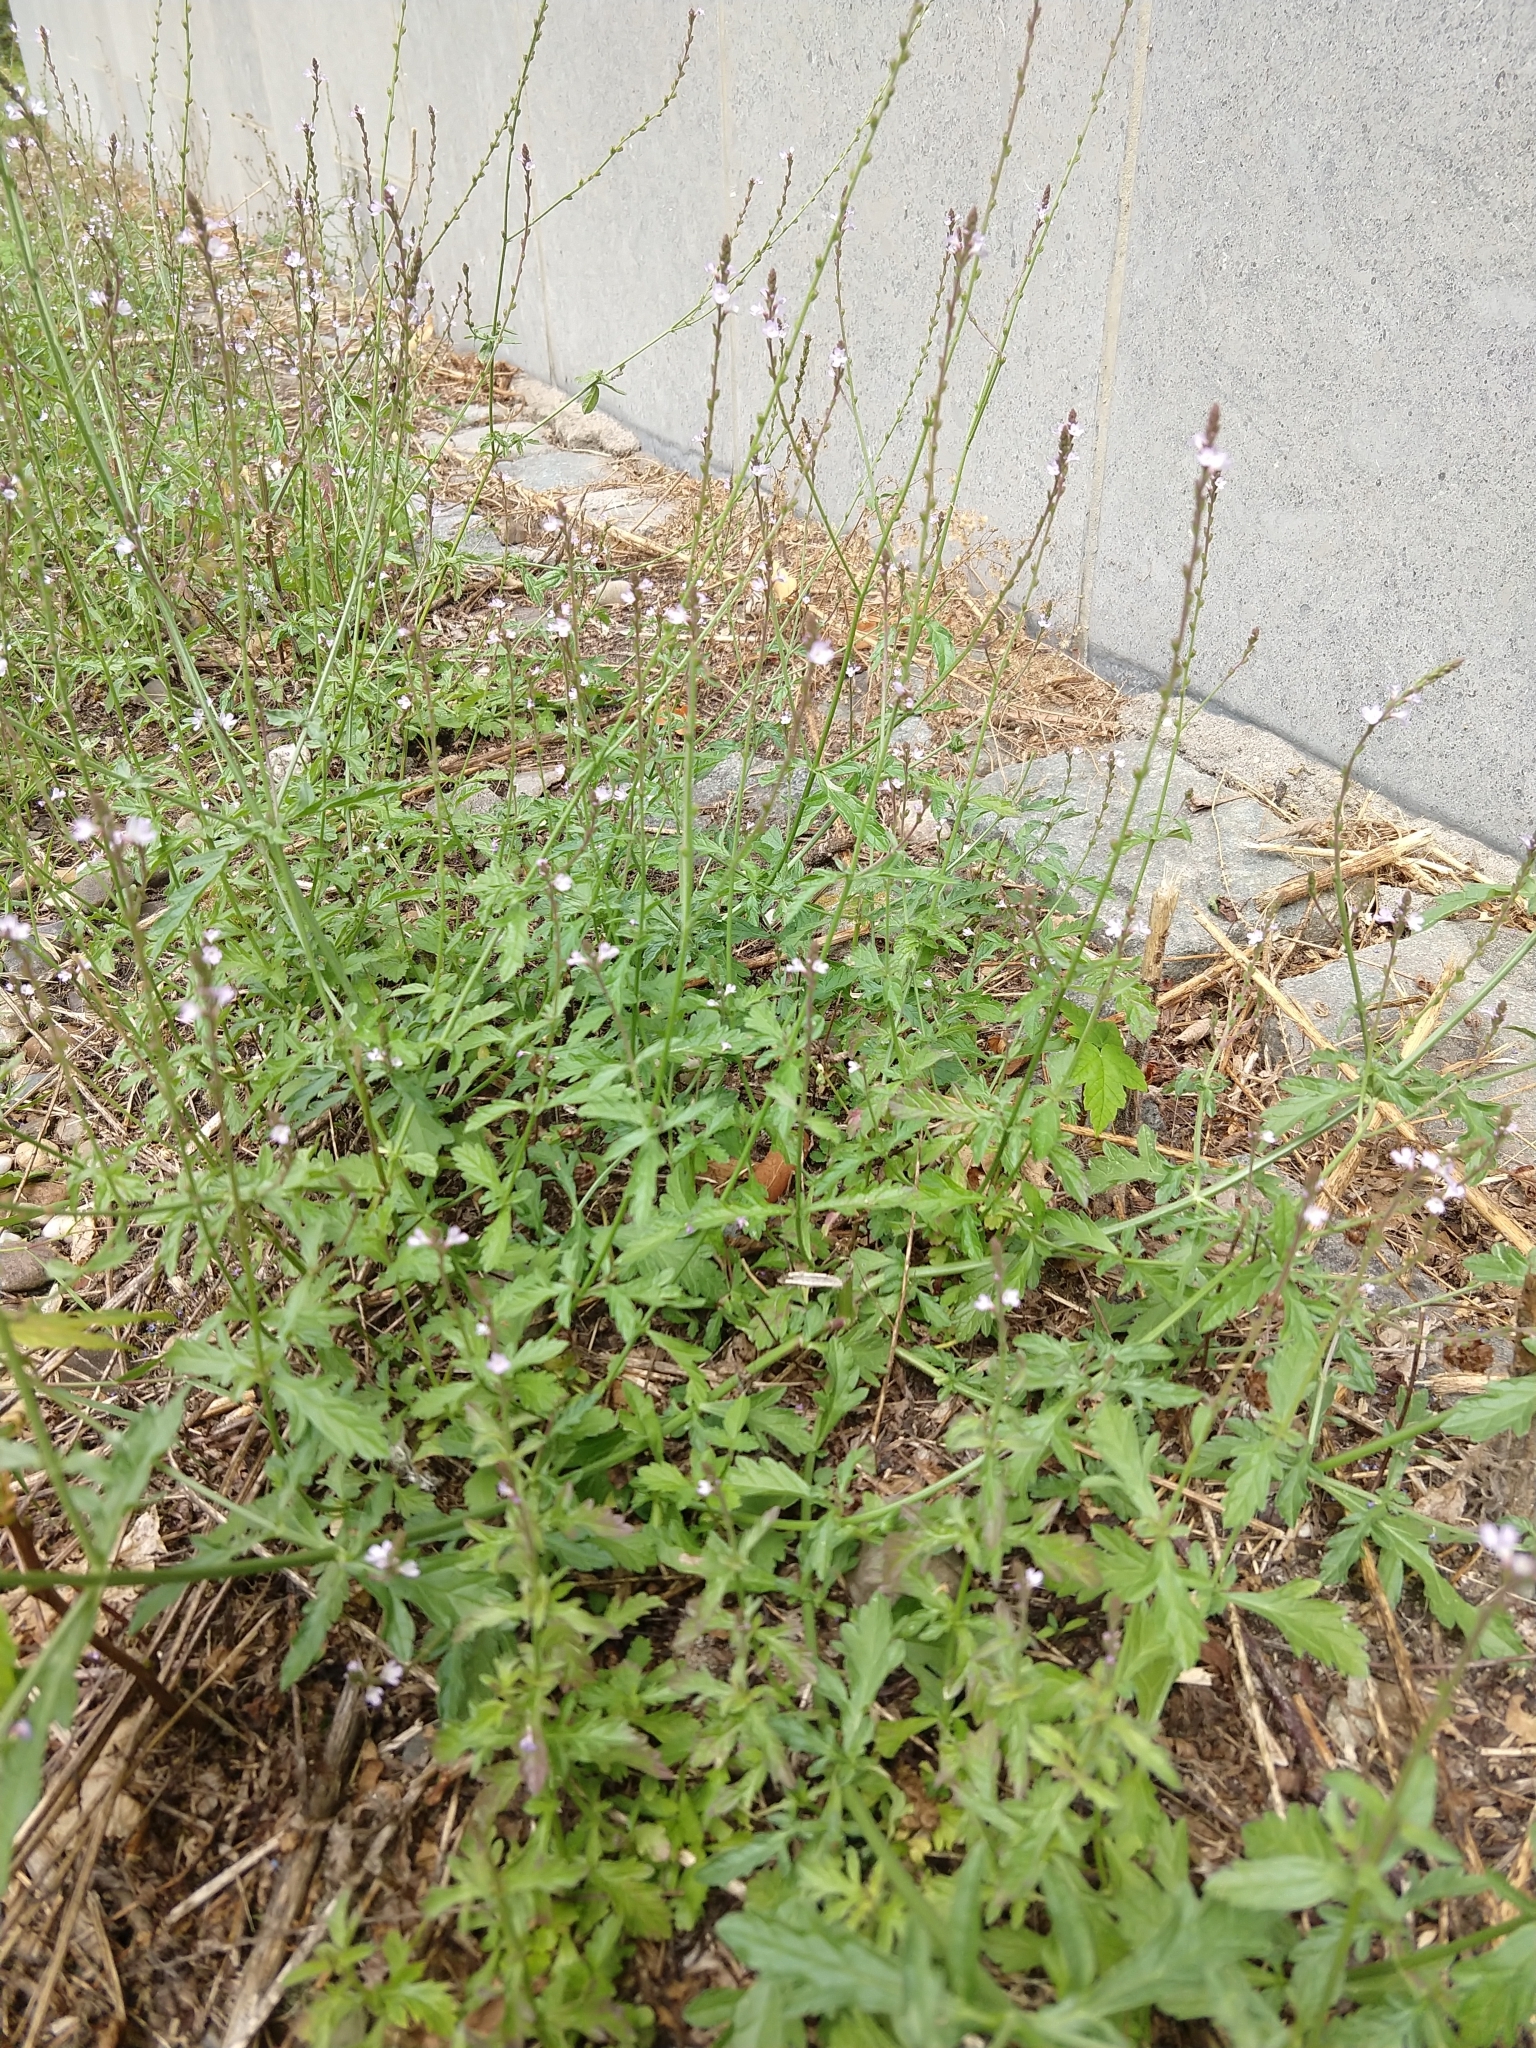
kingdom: Plantae
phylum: Tracheophyta
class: Magnoliopsida
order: Lamiales
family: Verbenaceae
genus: Verbena
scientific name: Verbena officinalis
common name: Vervain
